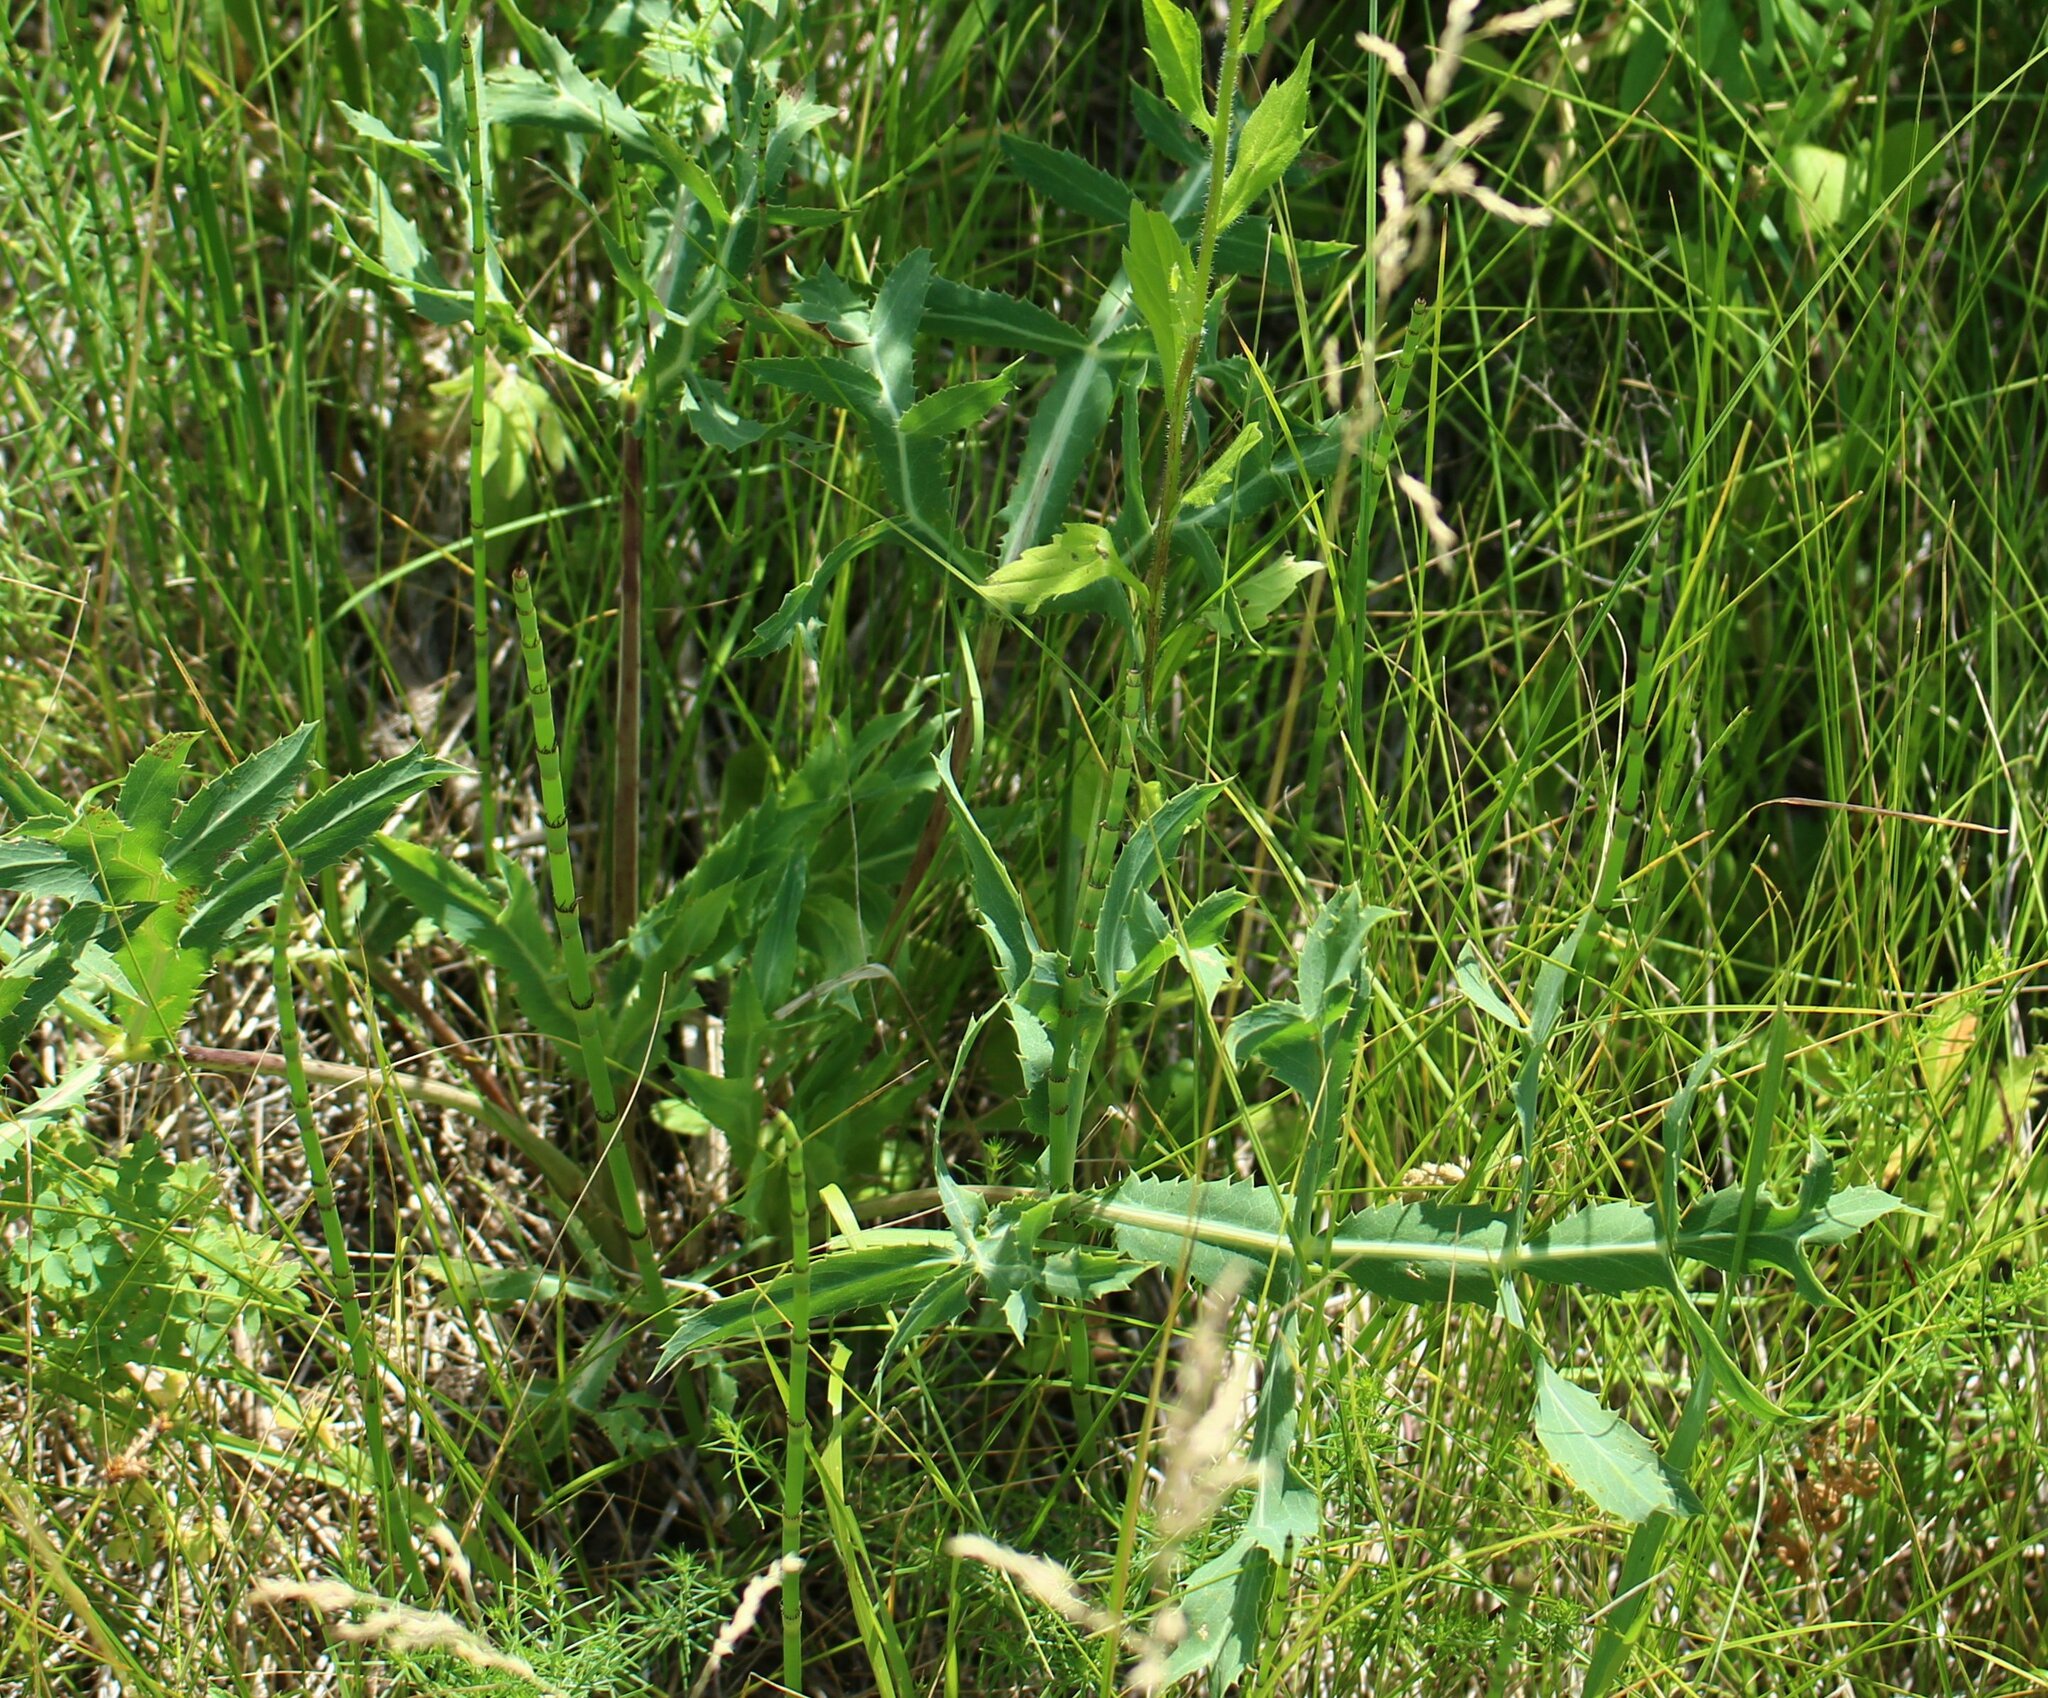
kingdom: Plantae
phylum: Tracheophyta
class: Magnoliopsida
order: Apiales
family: Apiaceae
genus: Eryngium
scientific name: Eryngium campestre
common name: Field eryngo
